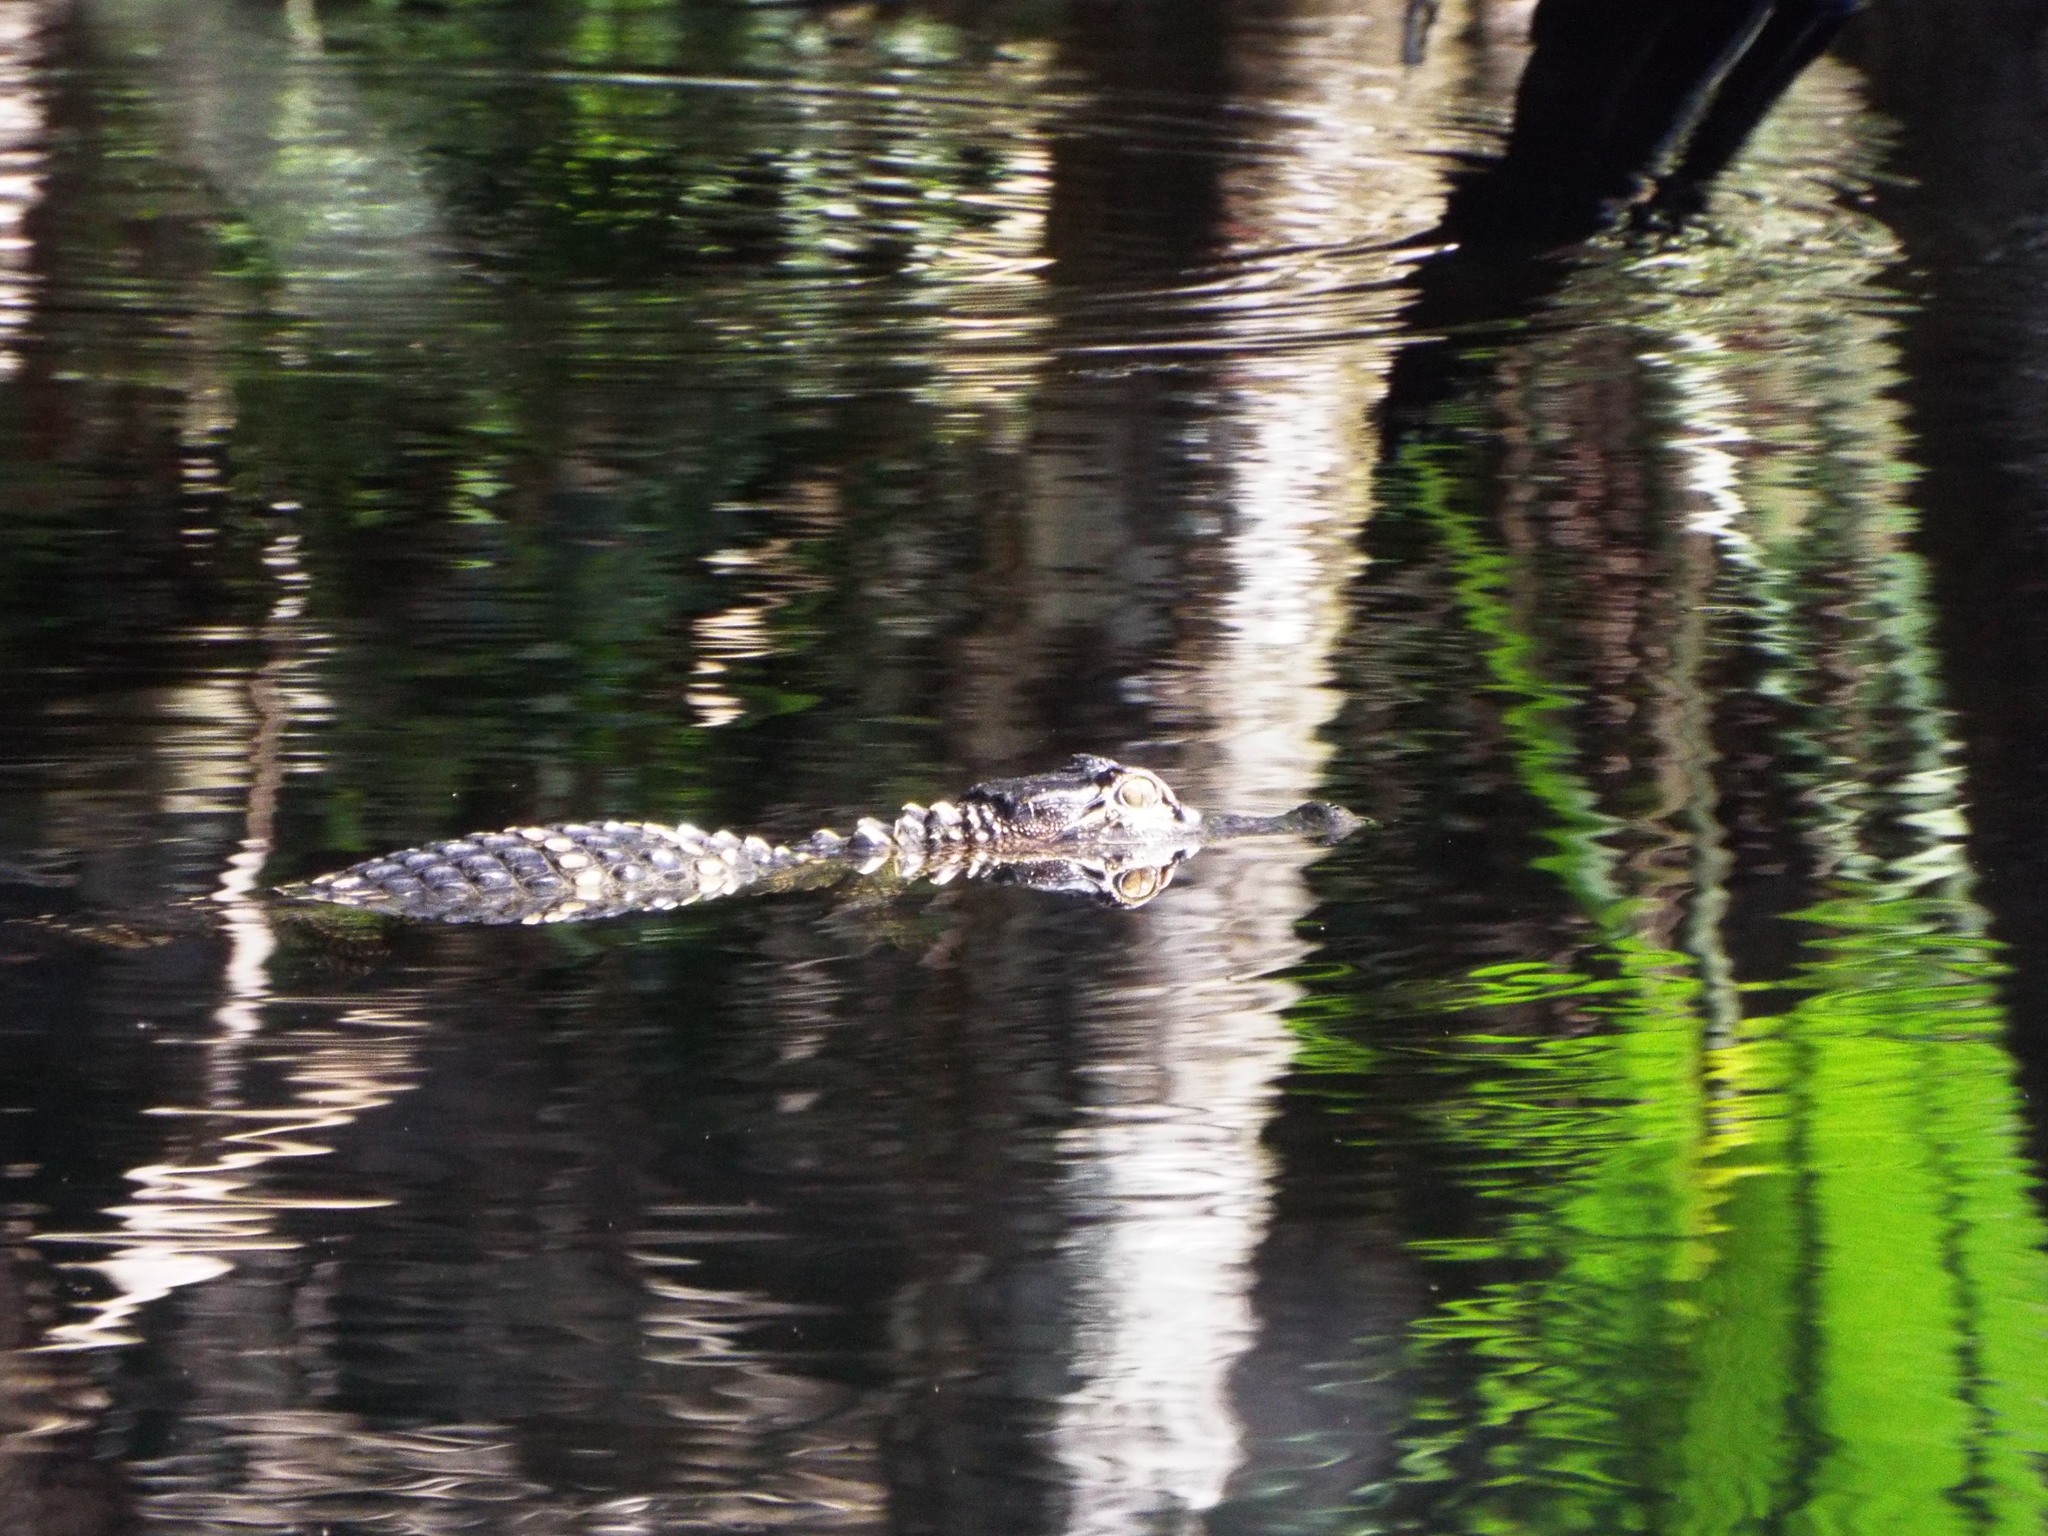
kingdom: Animalia
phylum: Chordata
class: Crocodylia
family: Alligatoridae
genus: Alligator
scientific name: Alligator mississippiensis
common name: American alligator
